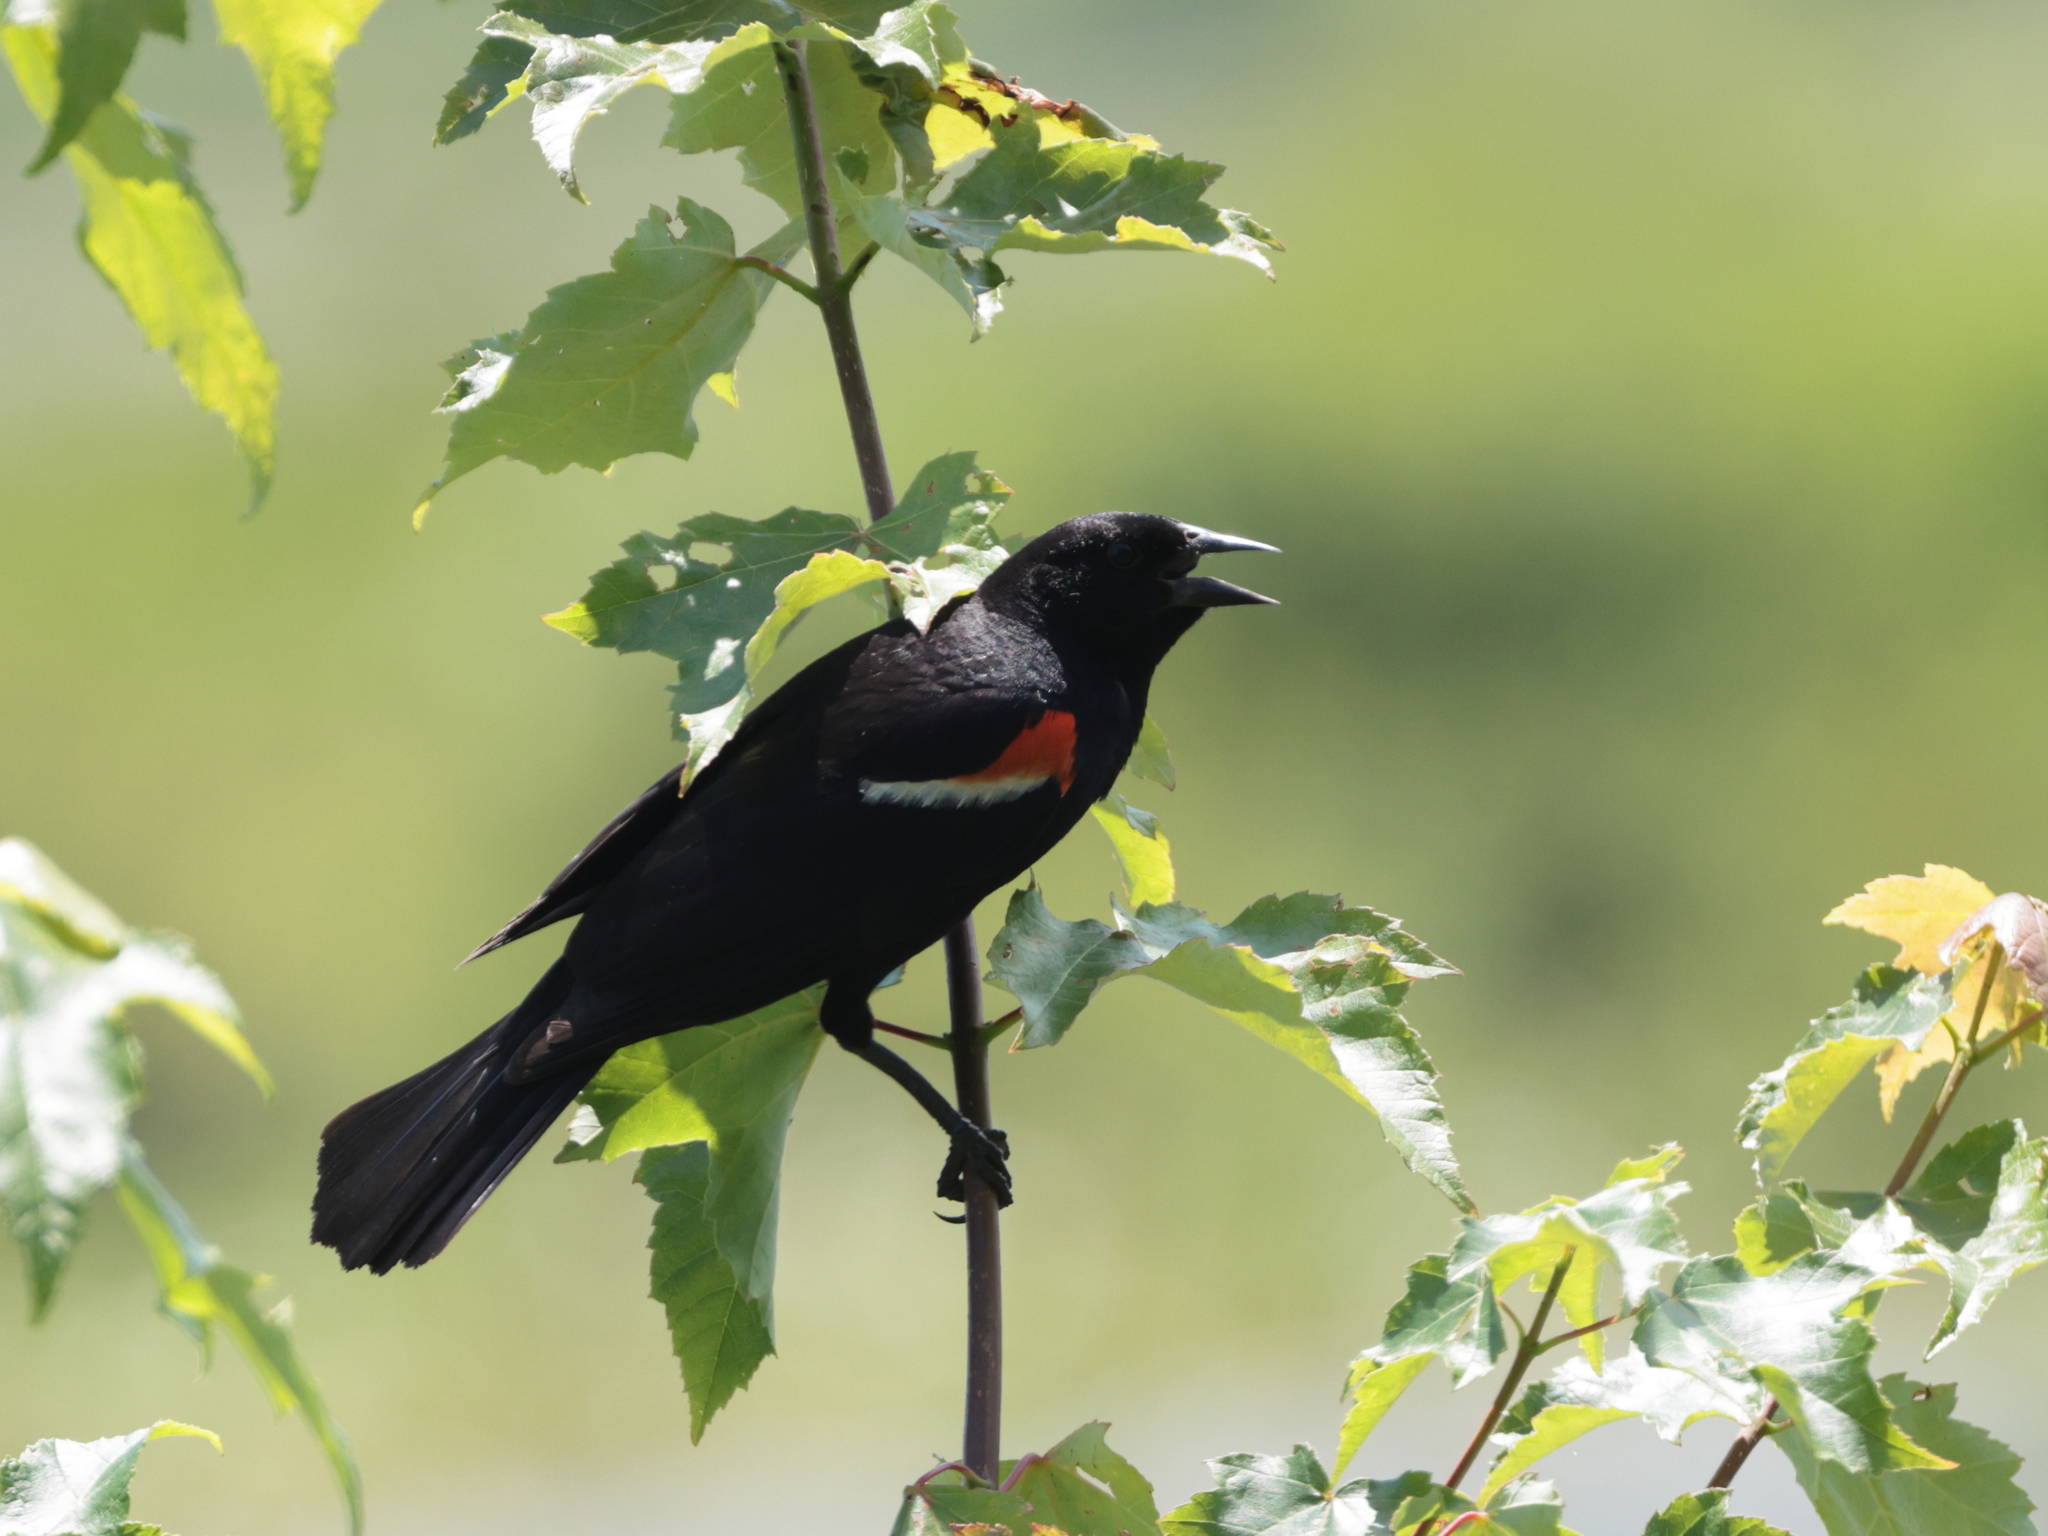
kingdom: Animalia
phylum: Chordata
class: Aves
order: Passeriformes
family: Icteridae
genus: Agelaius
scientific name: Agelaius phoeniceus
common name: Red-winged blackbird
